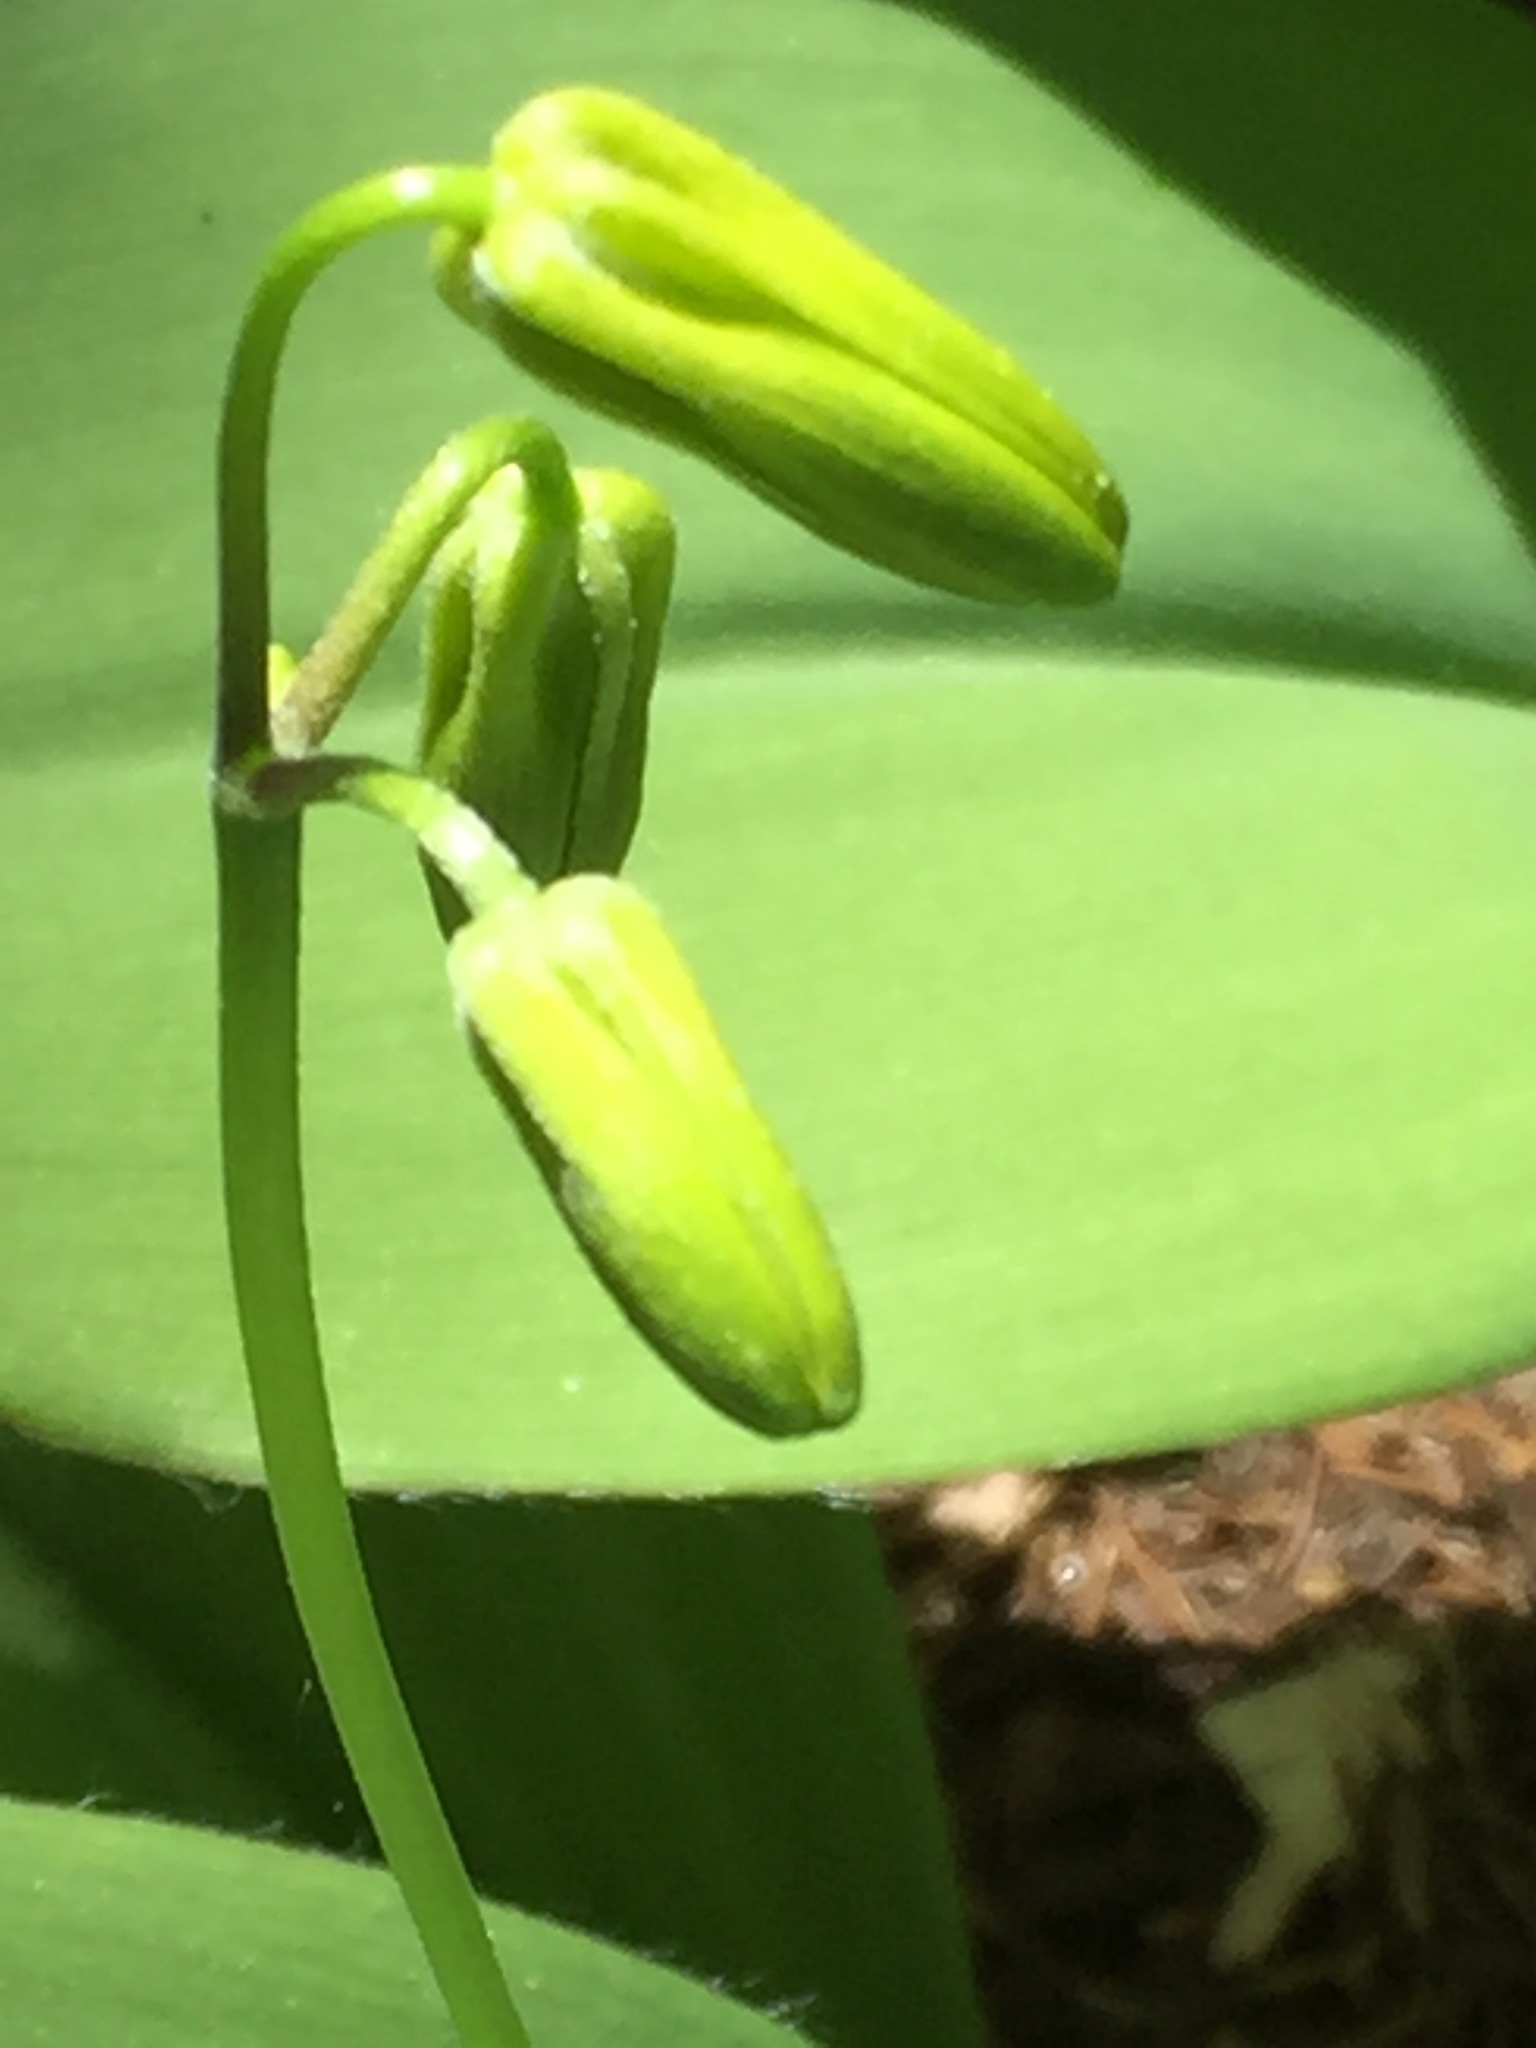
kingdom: Plantae
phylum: Tracheophyta
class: Liliopsida
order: Liliales
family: Liliaceae
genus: Clintonia
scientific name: Clintonia borealis
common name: Yellow clintonia
